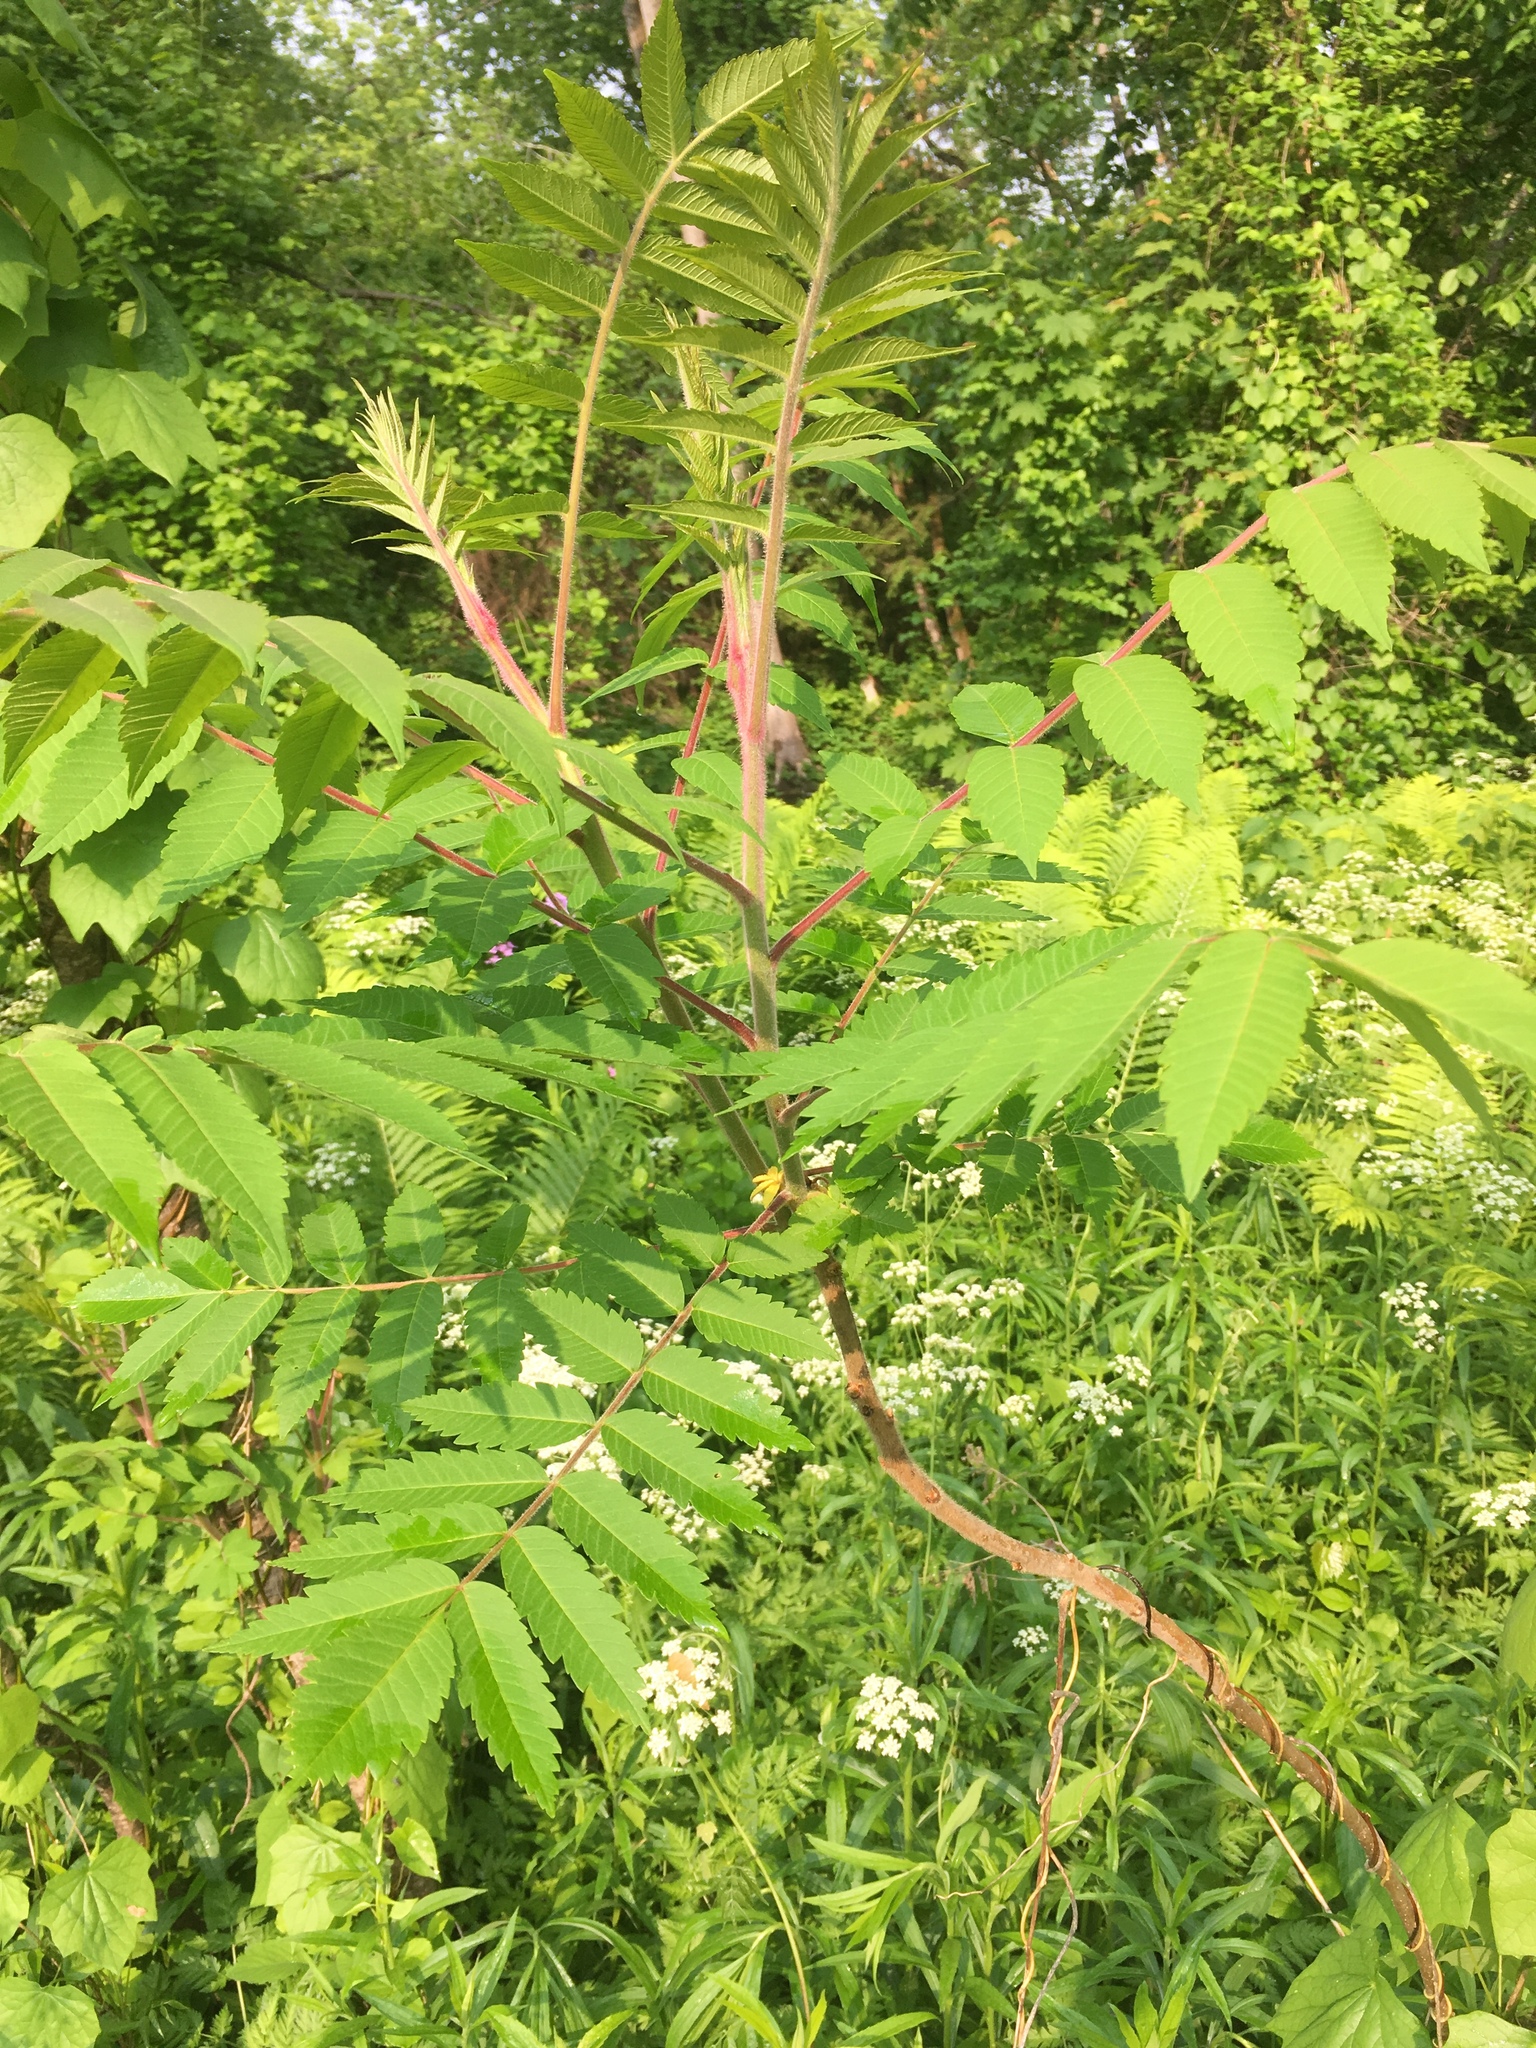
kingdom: Plantae
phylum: Tracheophyta
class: Magnoliopsida
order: Sapindales
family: Anacardiaceae
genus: Rhus
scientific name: Rhus typhina
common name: Staghorn sumac
